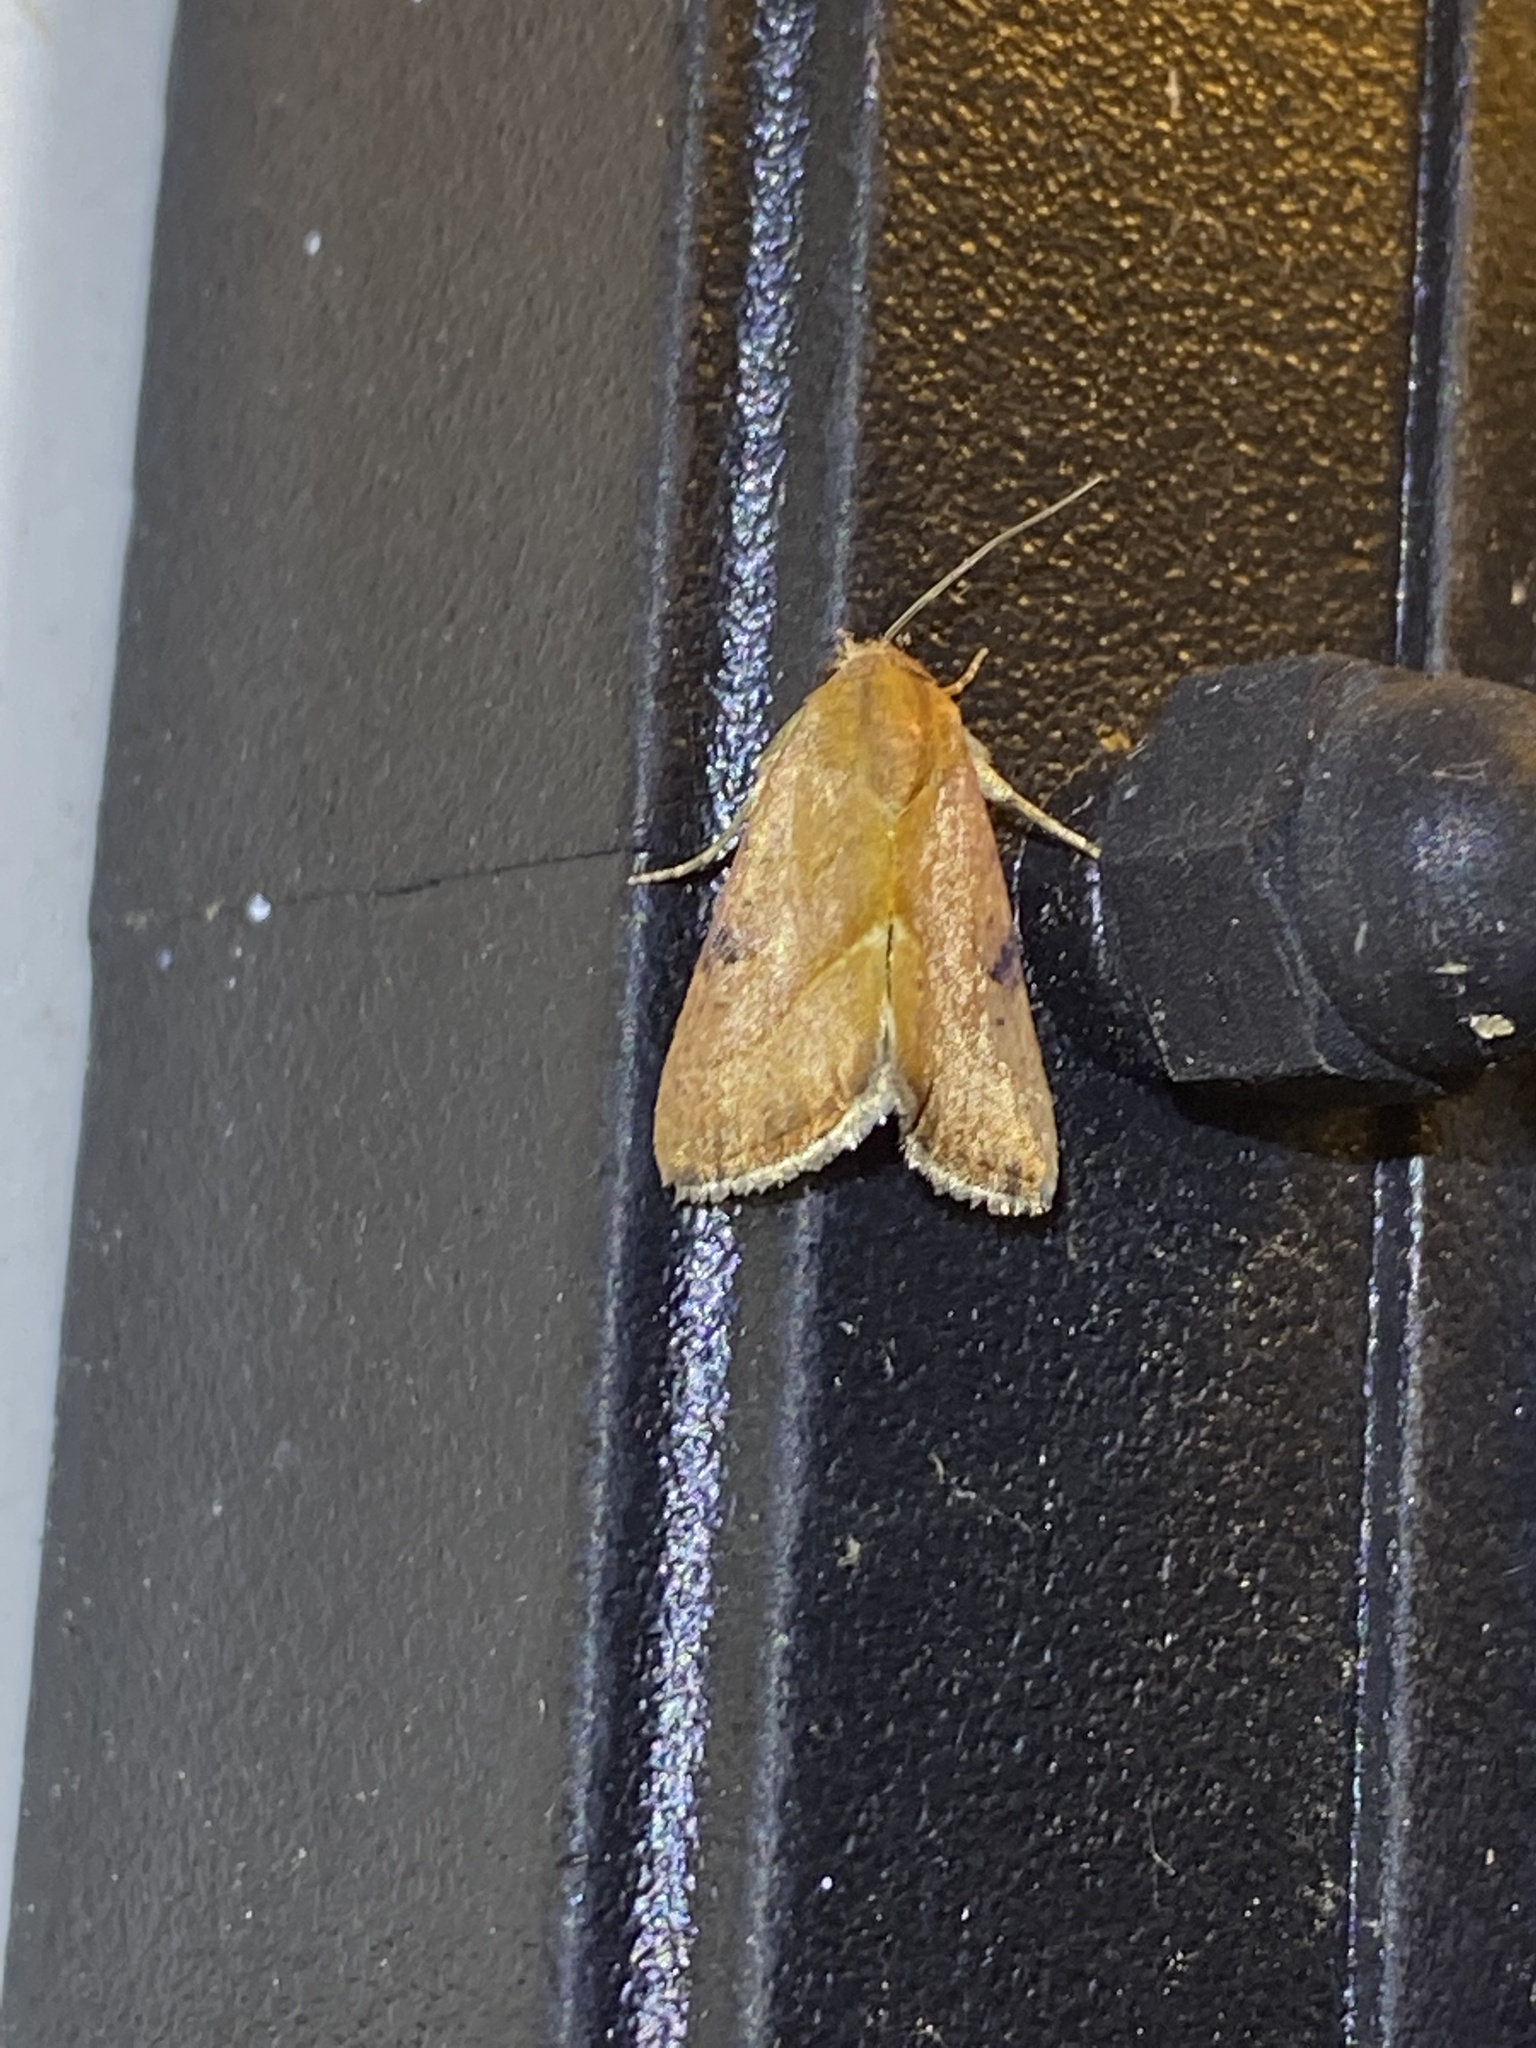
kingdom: Animalia
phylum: Arthropoda
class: Insecta
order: Lepidoptera
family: Noctuidae
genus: Galgula
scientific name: Galgula partita
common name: Wedgeling
